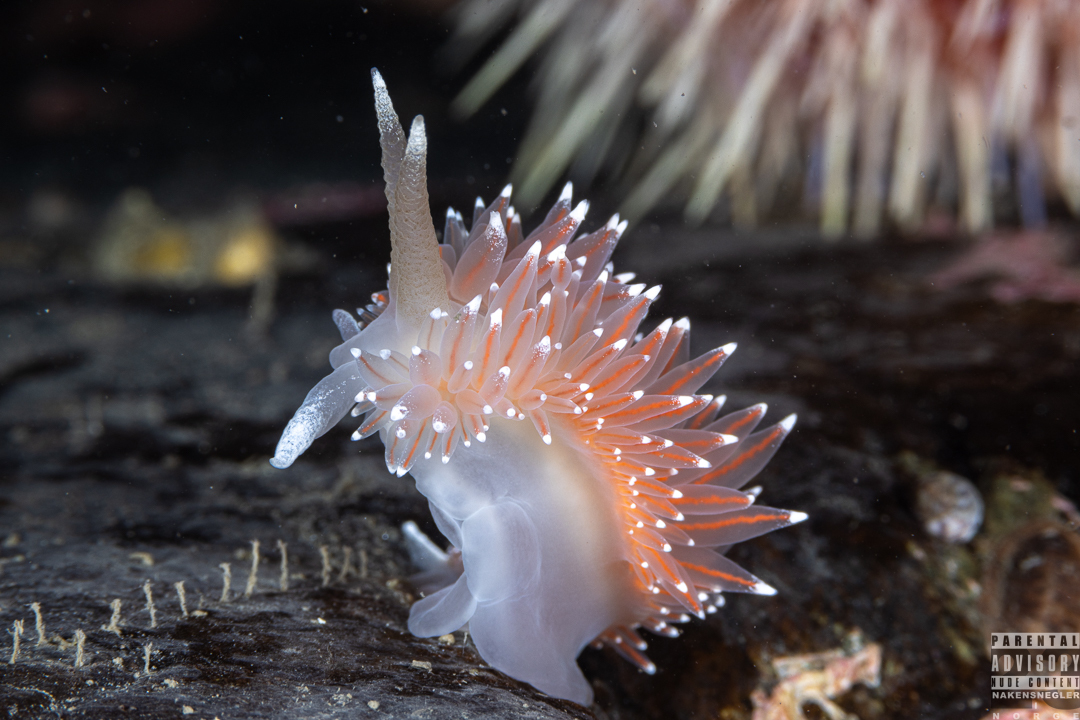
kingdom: Animalia
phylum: Mollusca
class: Gastropoda
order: Nudibranchia
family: Coryphellidae
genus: Coryphella
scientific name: Coryphella nobilis
